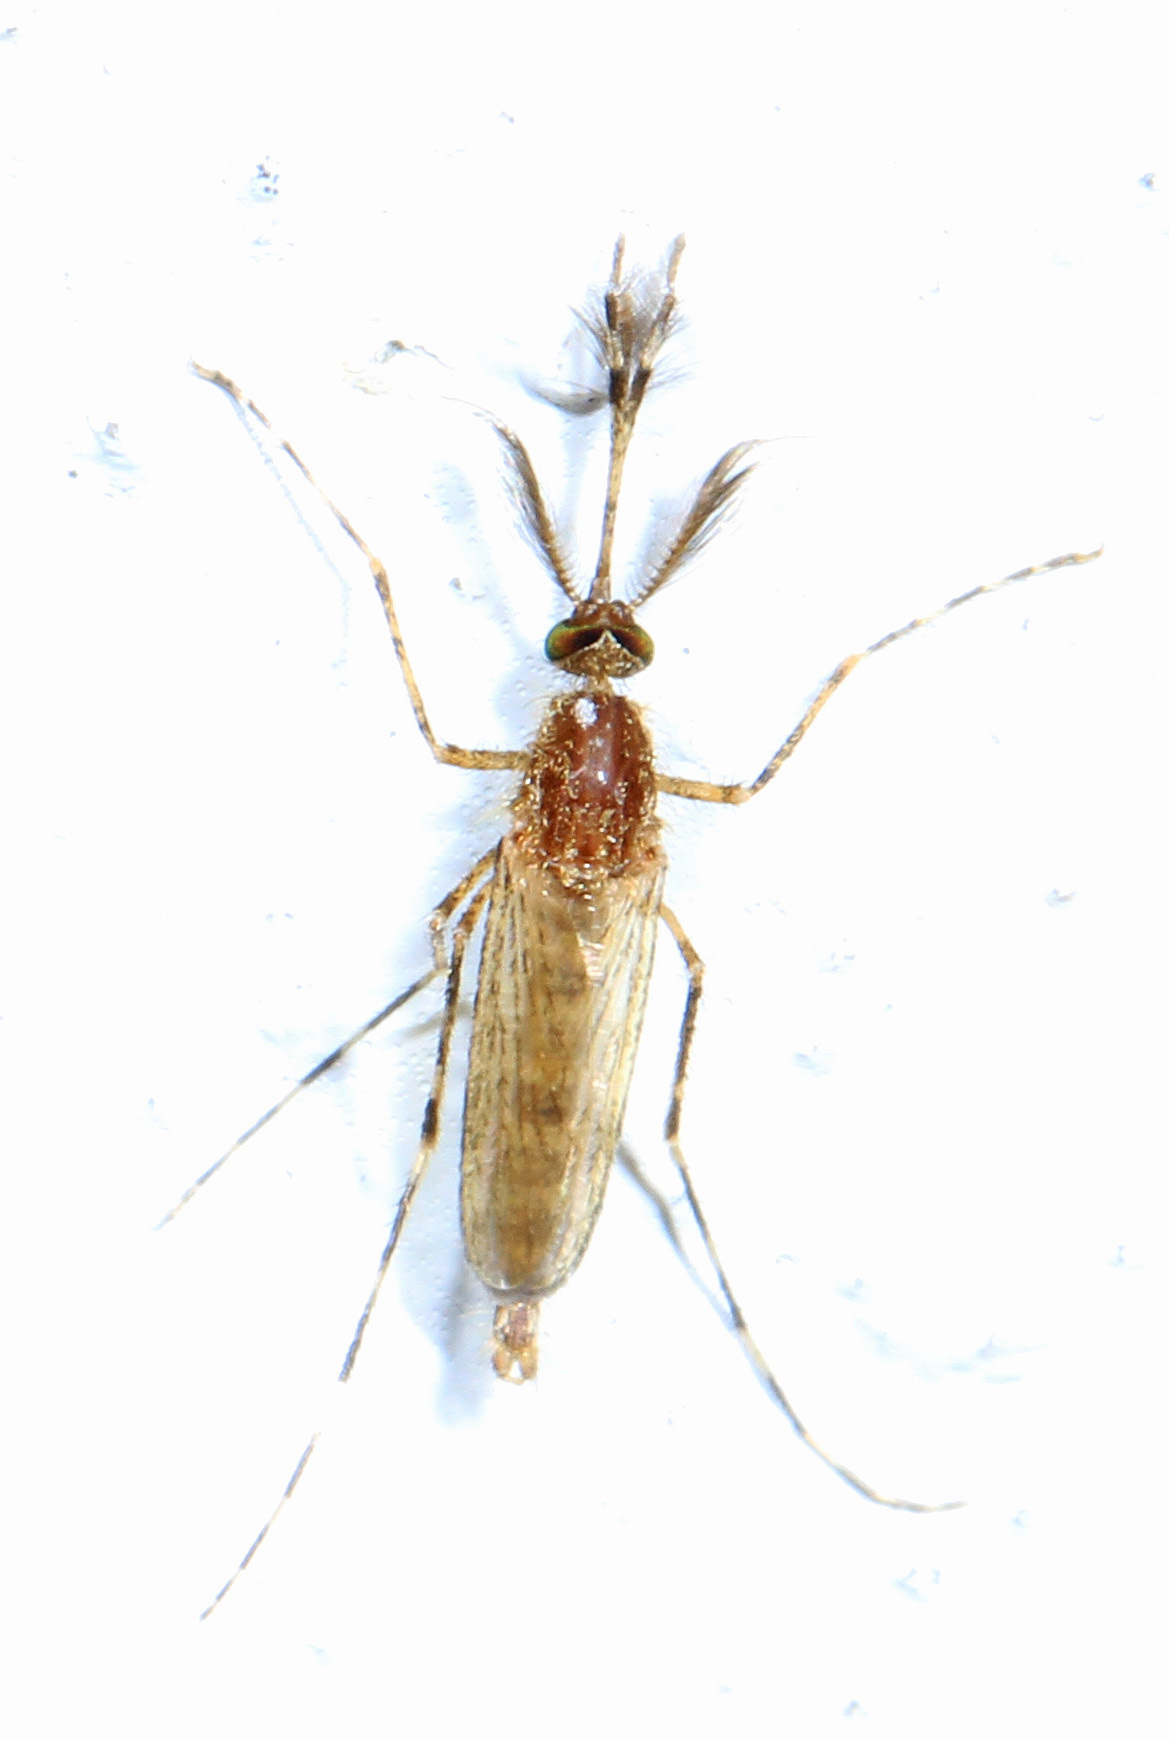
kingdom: Animalia
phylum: Arthropoda
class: Insecta
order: Diptera
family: Culicidae
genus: Coquillettidia
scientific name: Coquillettidia perturbans
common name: Cattail mosquito
